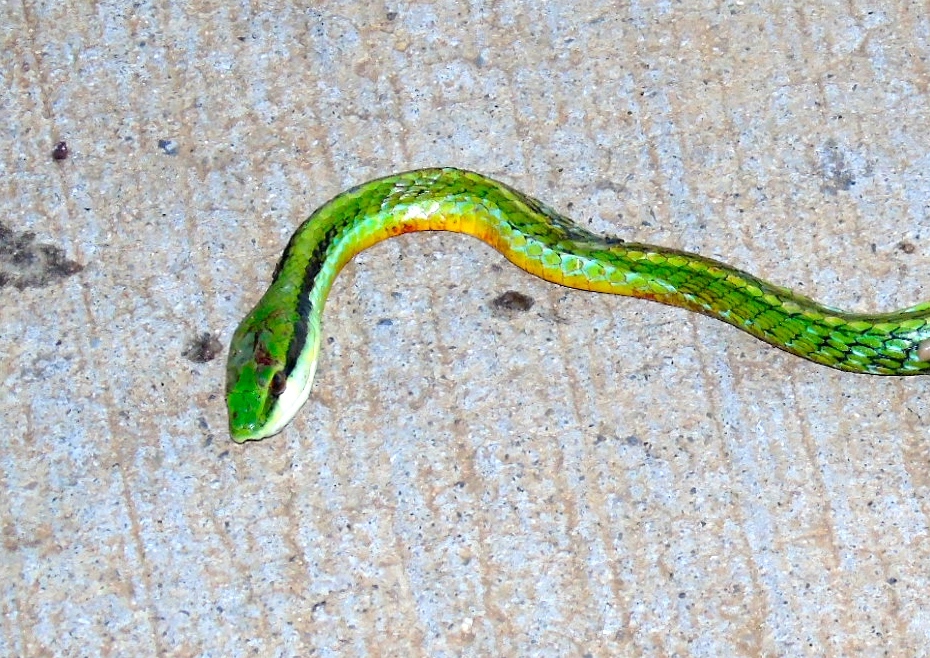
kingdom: Animalia
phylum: Chordata
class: Squamata
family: Colubridae
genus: Leptophis
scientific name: Leptophis diplotropis
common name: Pacific coast parrot snake
